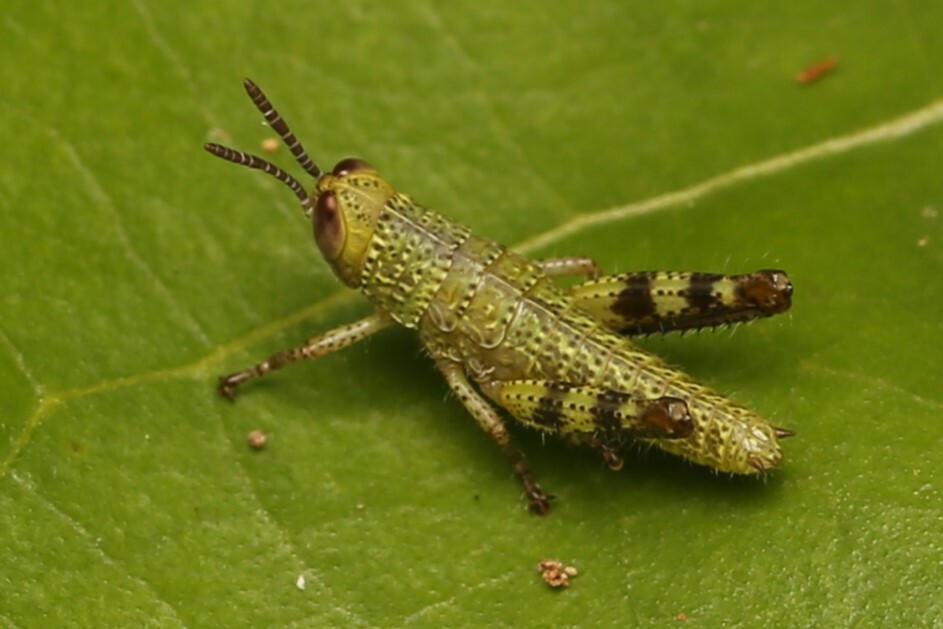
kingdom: Animalia
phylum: Arthropoda
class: Insecta
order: Orthoptera
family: Acrididae
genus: Valanga
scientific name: Valanga irregularis
